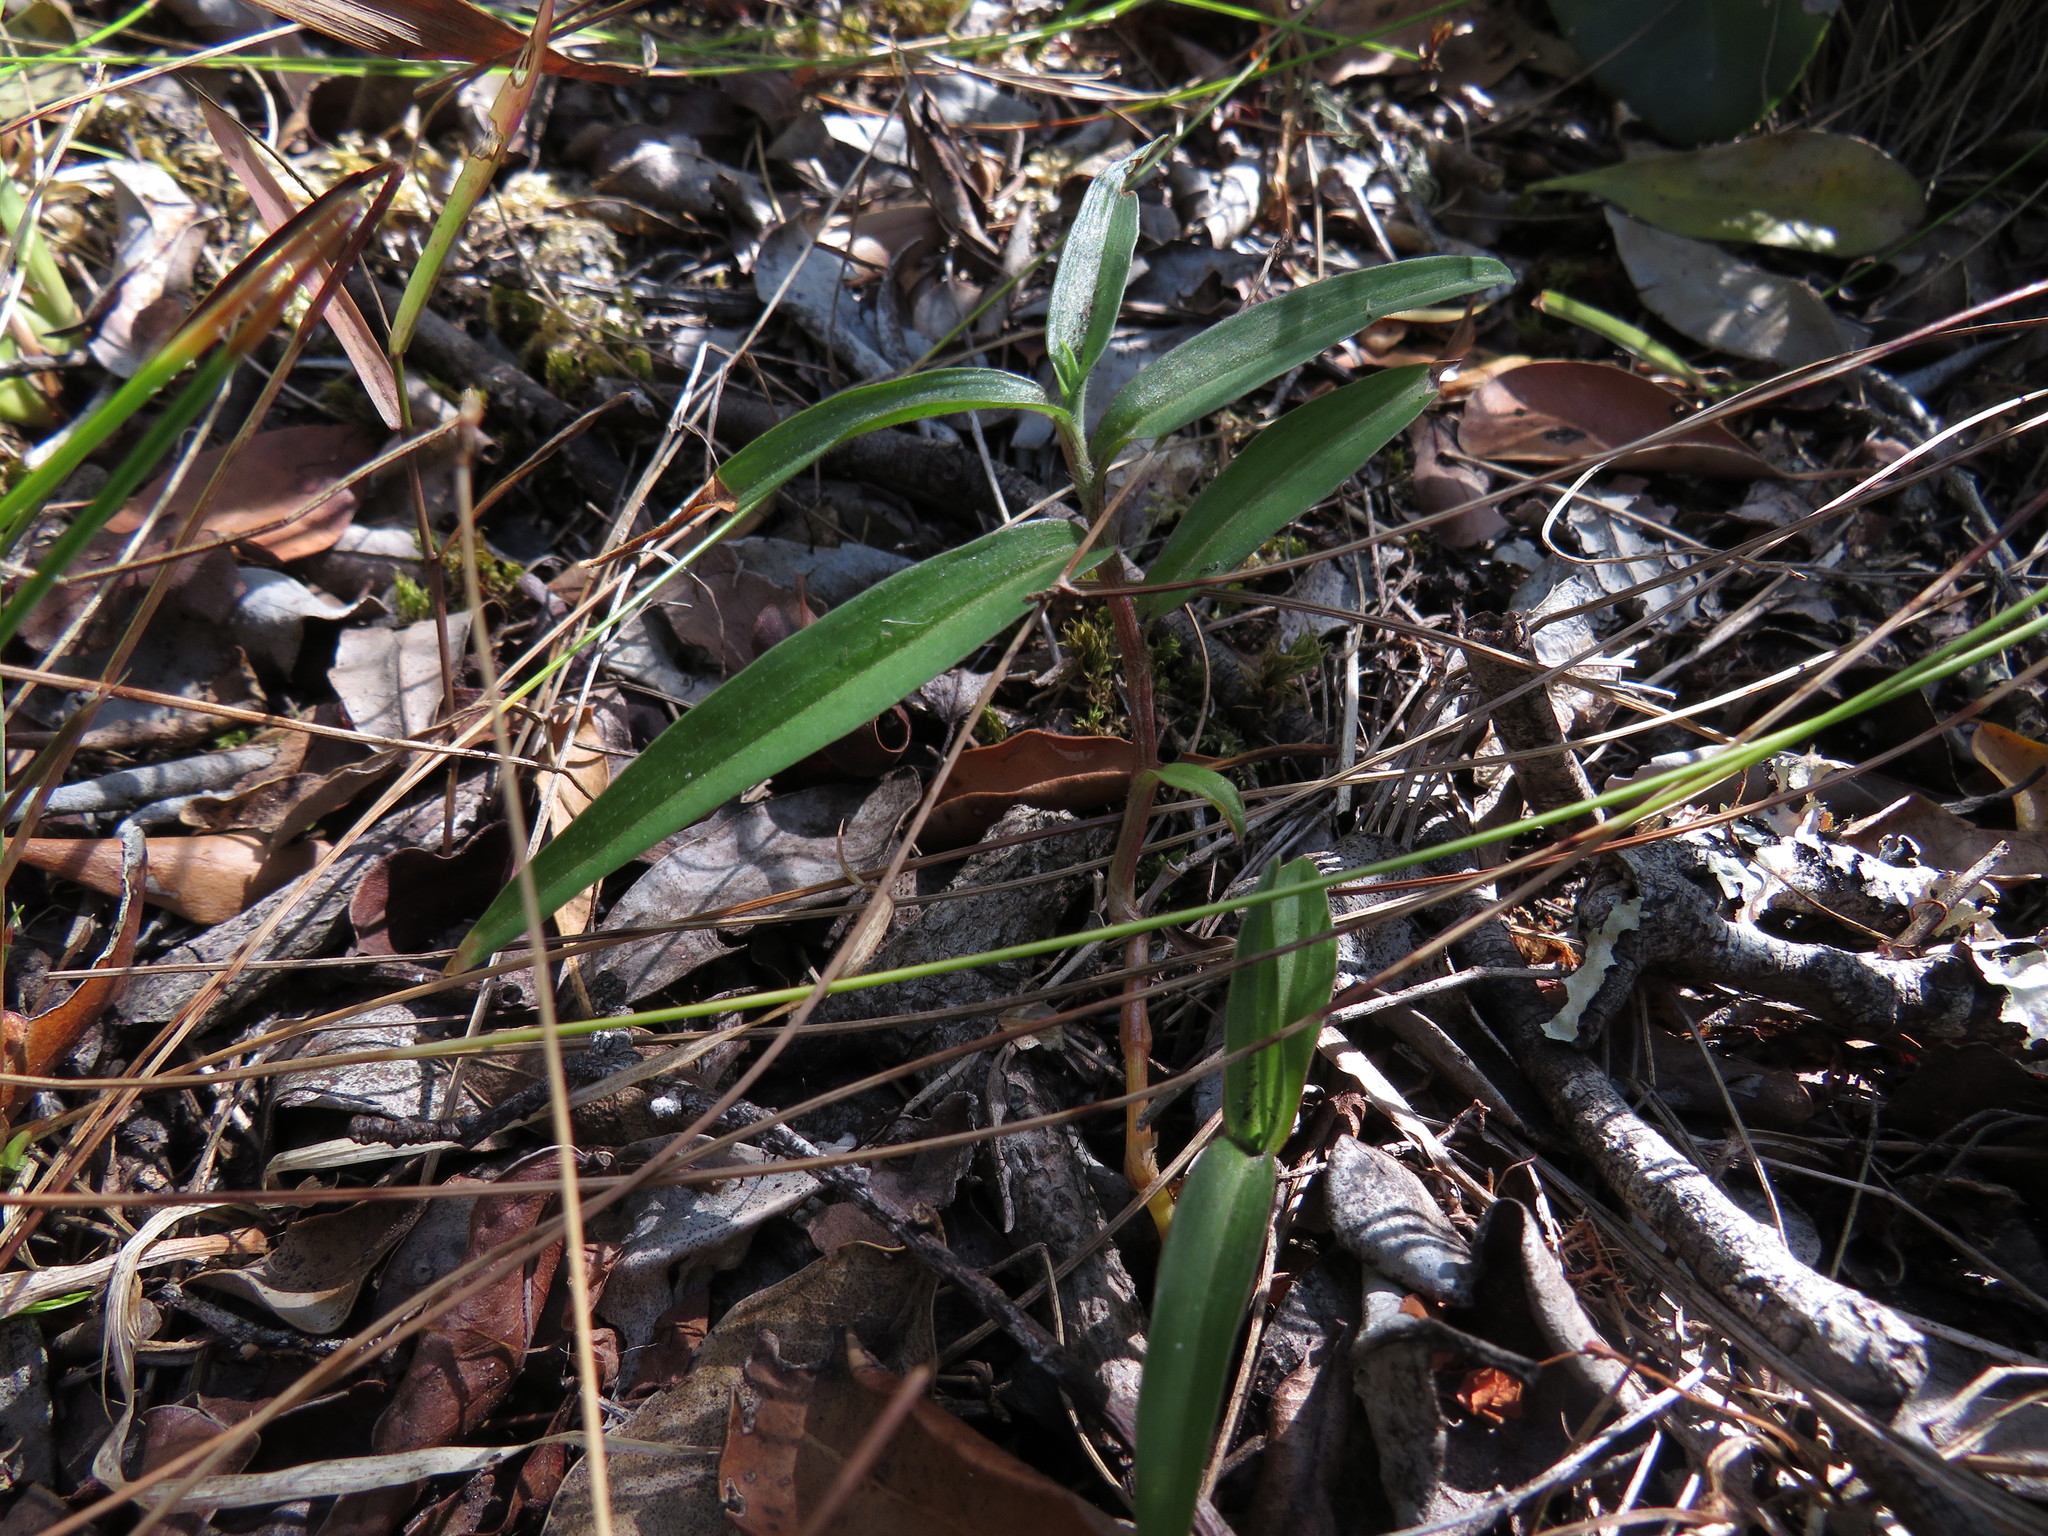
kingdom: Plantae
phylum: Tracheophyta
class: Liliopsida
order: Commelinales
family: Commelinaceae
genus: Commelina
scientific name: Commelina africana
